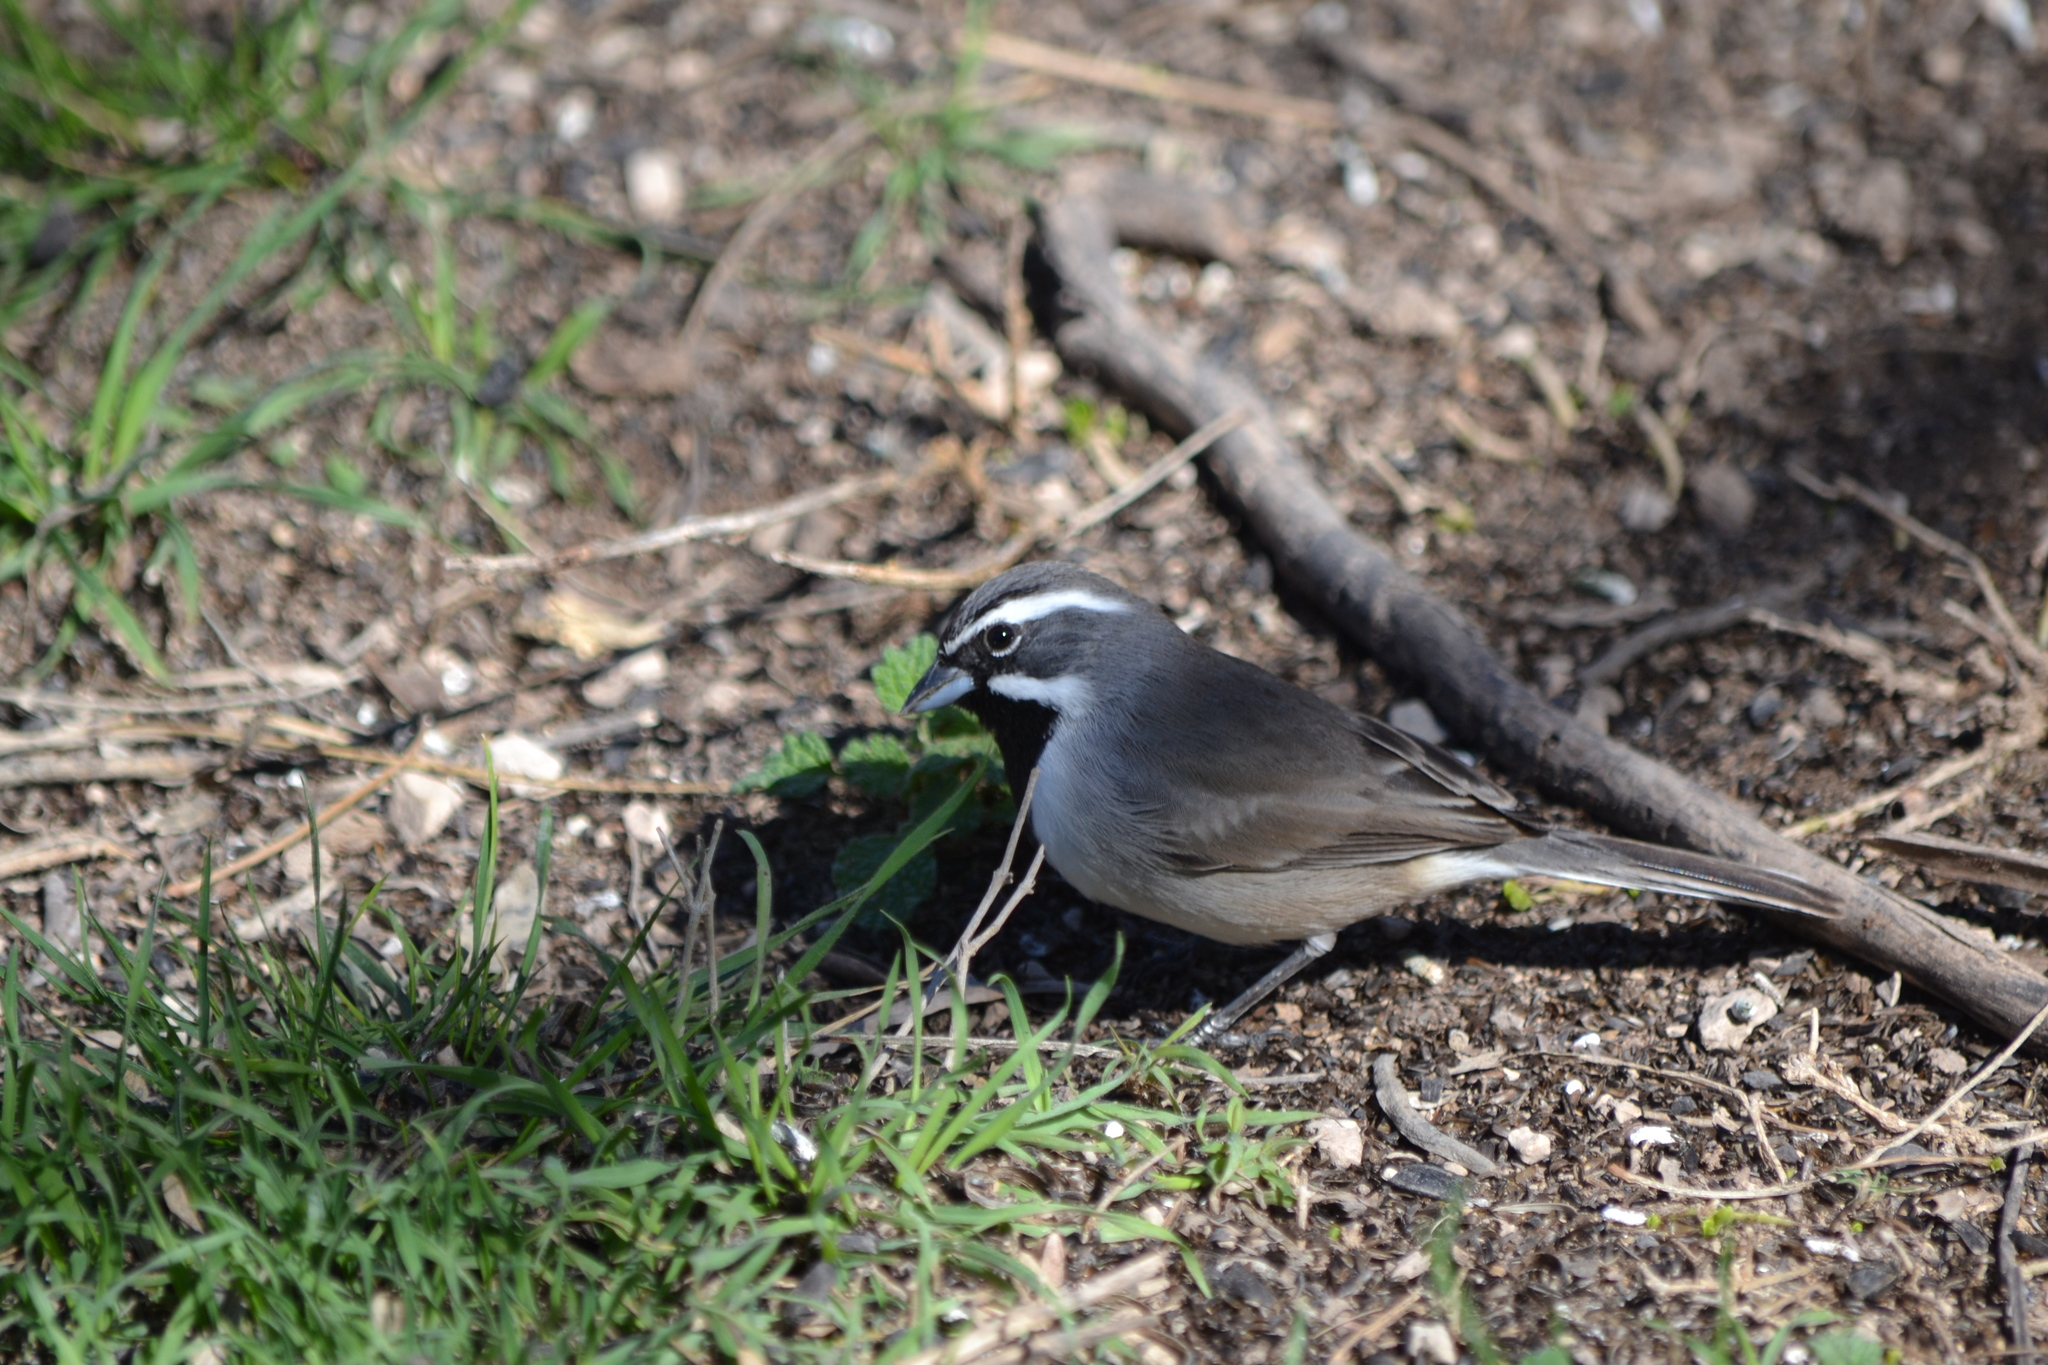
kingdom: Animalia
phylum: Chordata
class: Aves
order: Passeriformes
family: Passerellidae
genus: Amphispiza
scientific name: Amphispiza bilineata
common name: Black-throated sparrow
